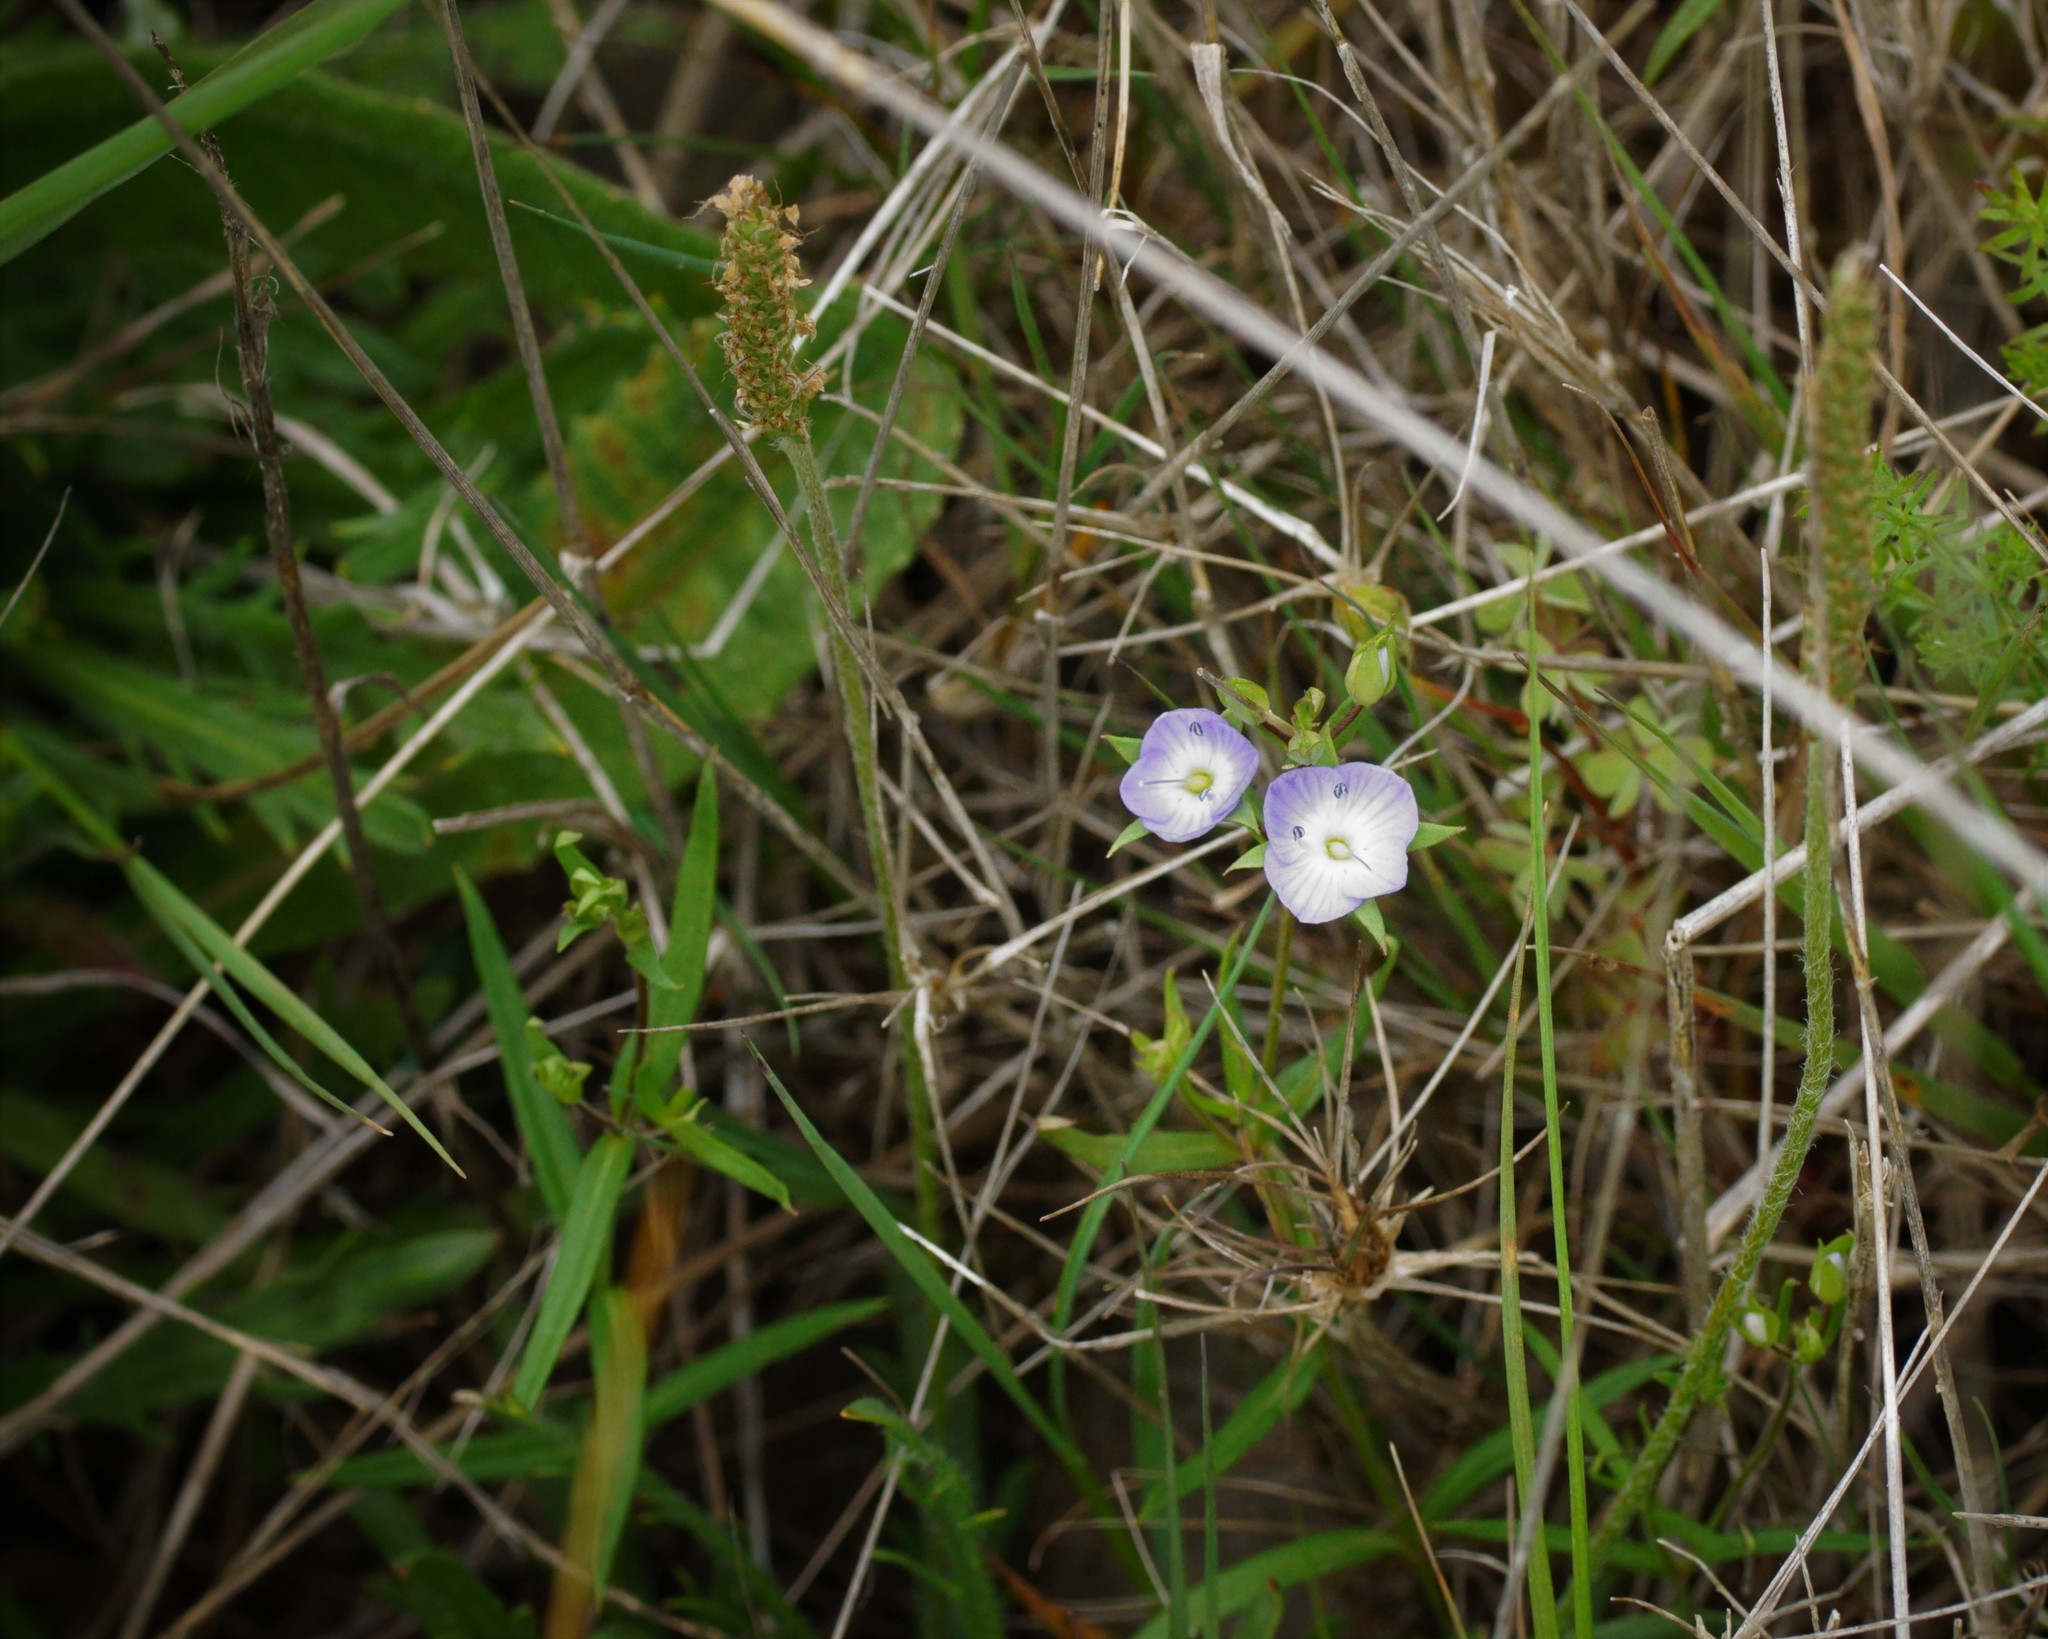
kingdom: Plantae
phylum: Tracheophyta
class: Magnoliopsida
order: Lamiales
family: Plantaginaceae
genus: Veronica
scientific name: Veronica gracilis
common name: Slender speedwell
